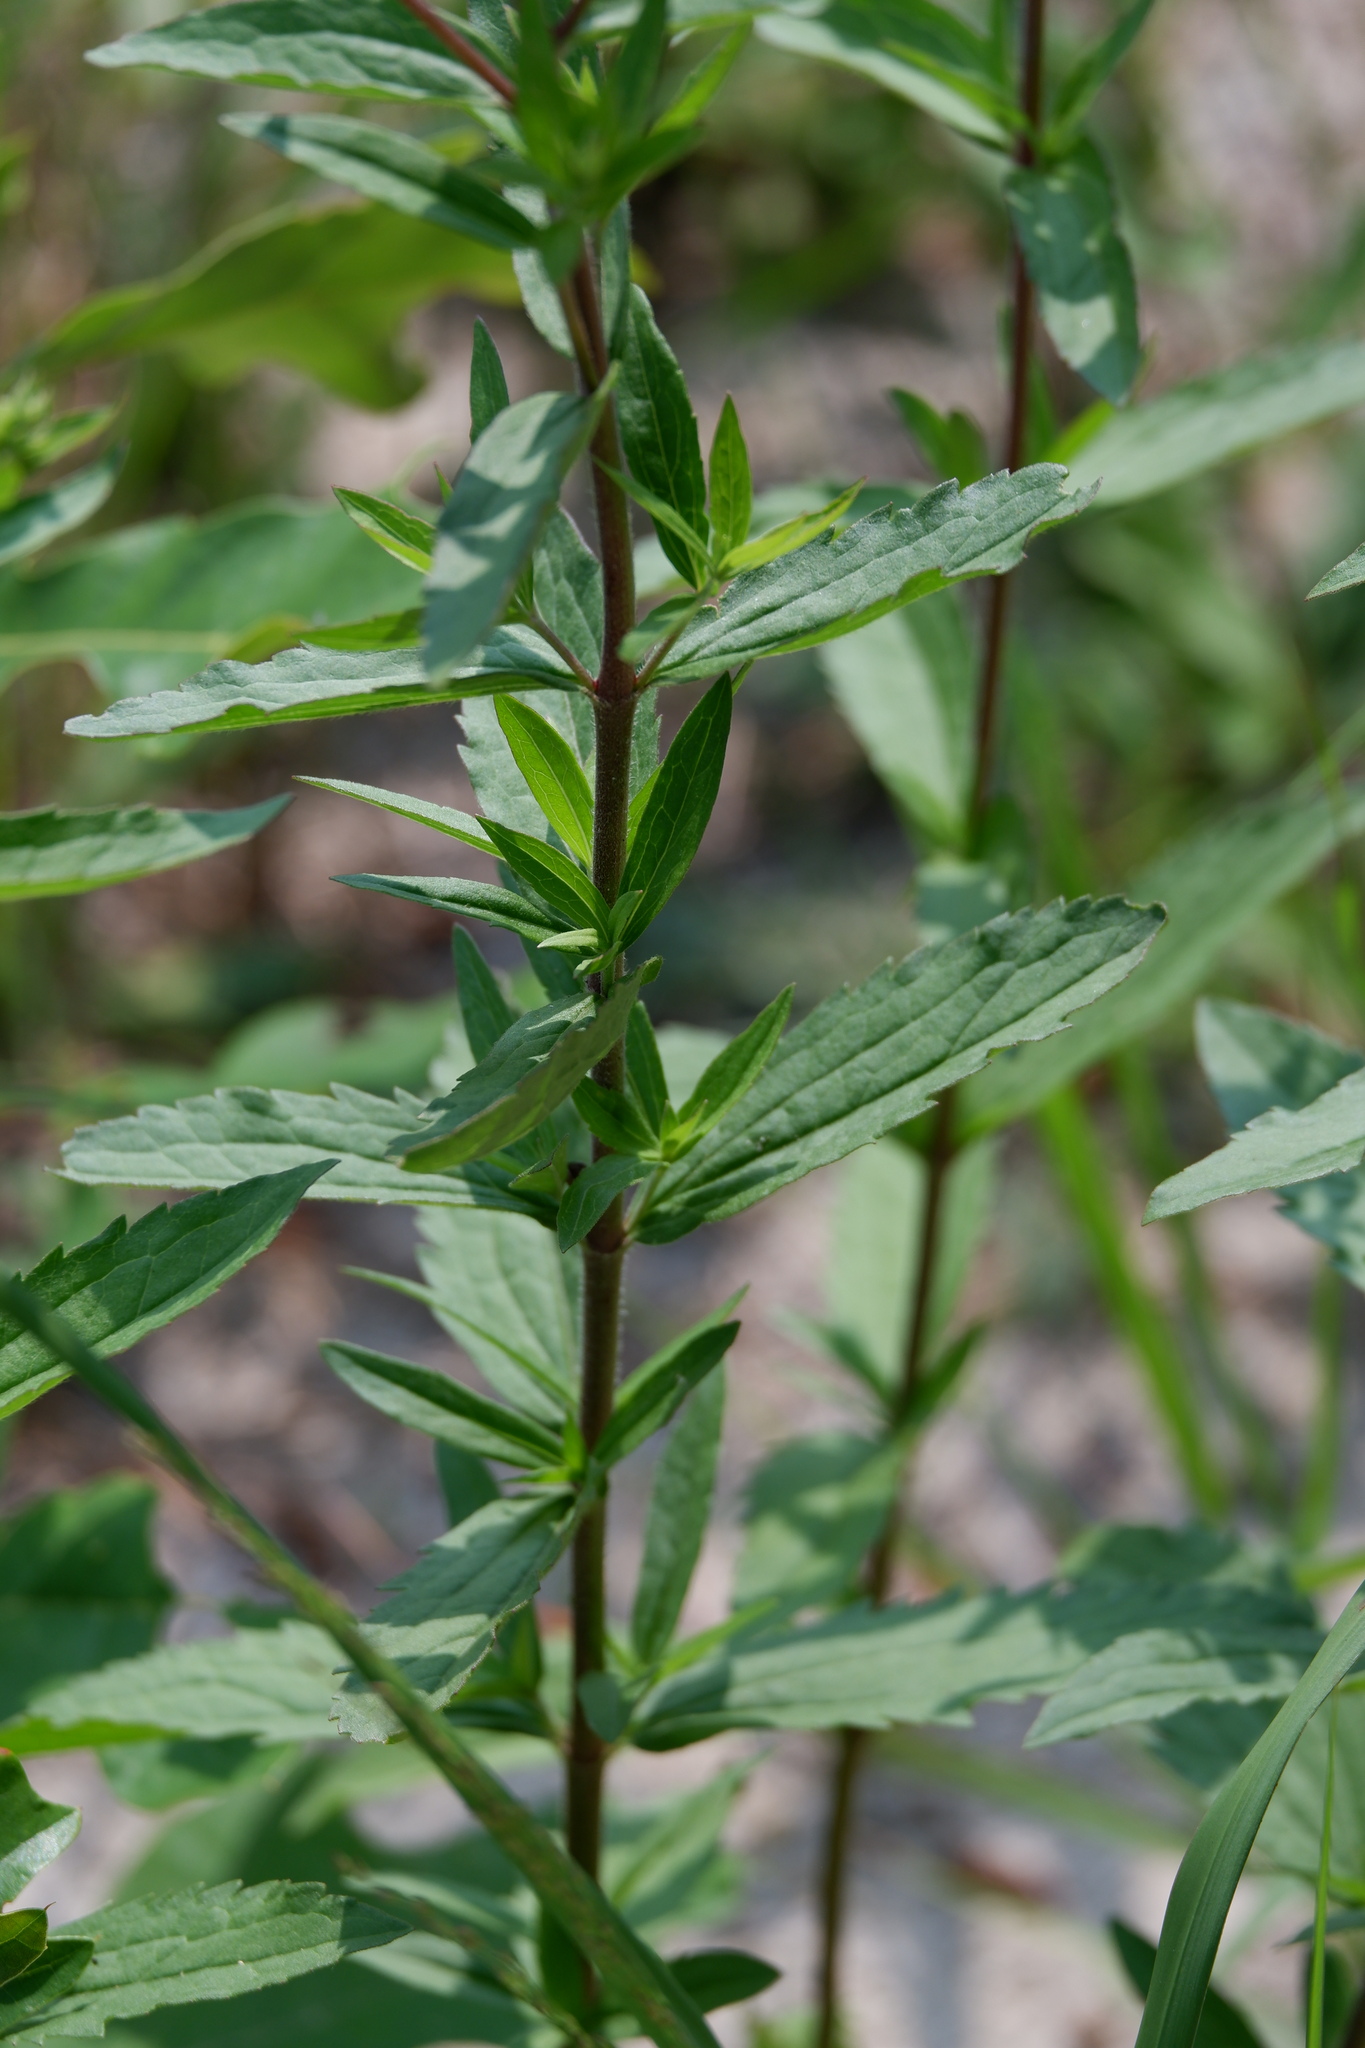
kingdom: Plantae
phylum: Tracheophyta
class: Magnoliopsida
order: Asterales
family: Asteraceae
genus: Eupatorium
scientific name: Eupatorium subvenosum
